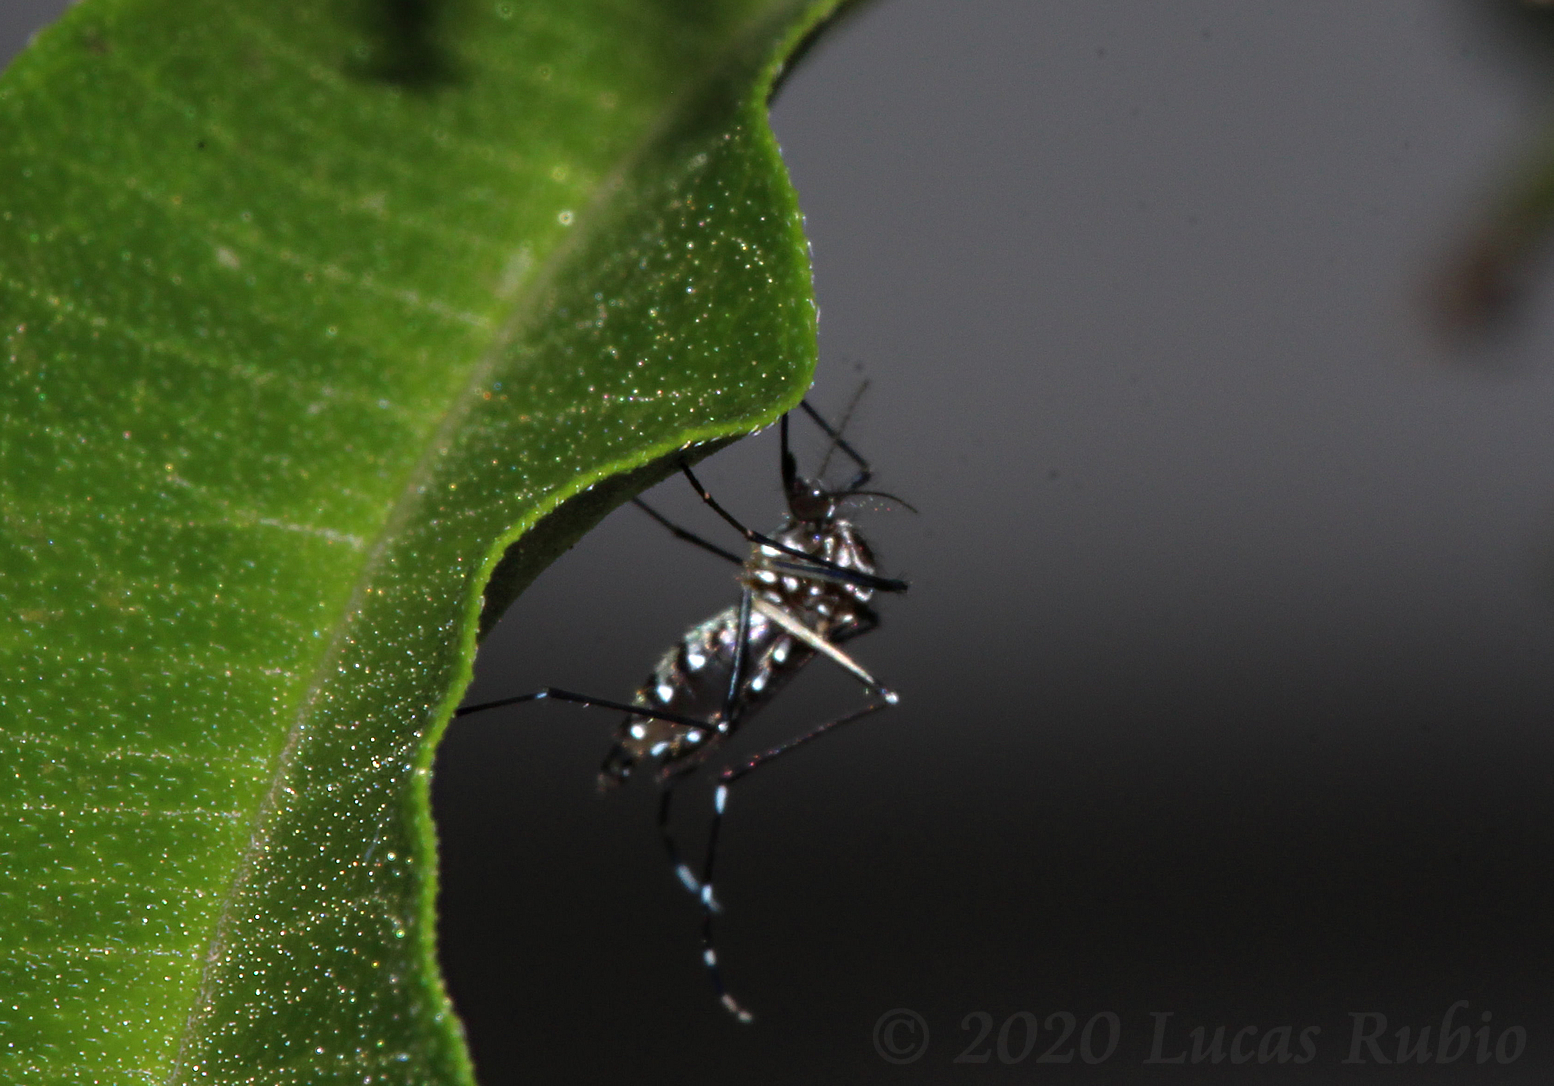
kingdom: Animalia
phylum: Arthropoda
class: Insecta
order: Diptera
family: Culicidae
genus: Aedes
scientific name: Aedes aegypti
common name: Yellow fever mosquito
